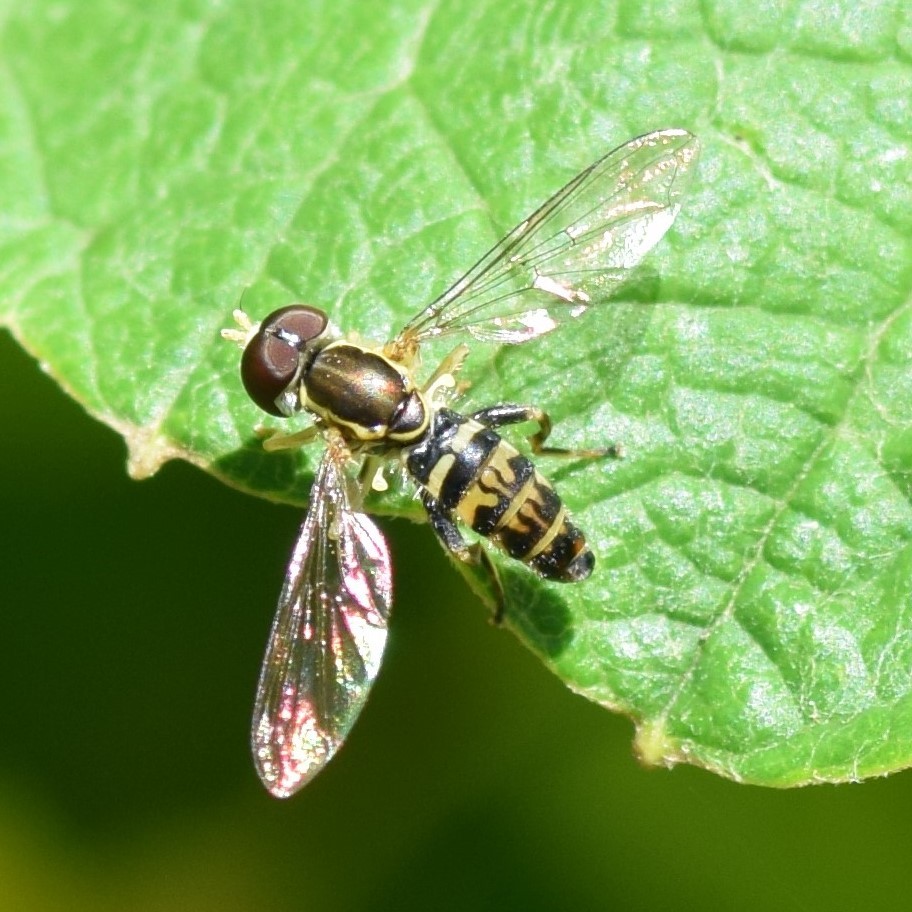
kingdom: Animalia
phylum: Arthropoda
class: Insecta
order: Diptera
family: Syrphidae
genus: Toxomerus
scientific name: Toxomerus geminatus
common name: Eastern calligrapher
